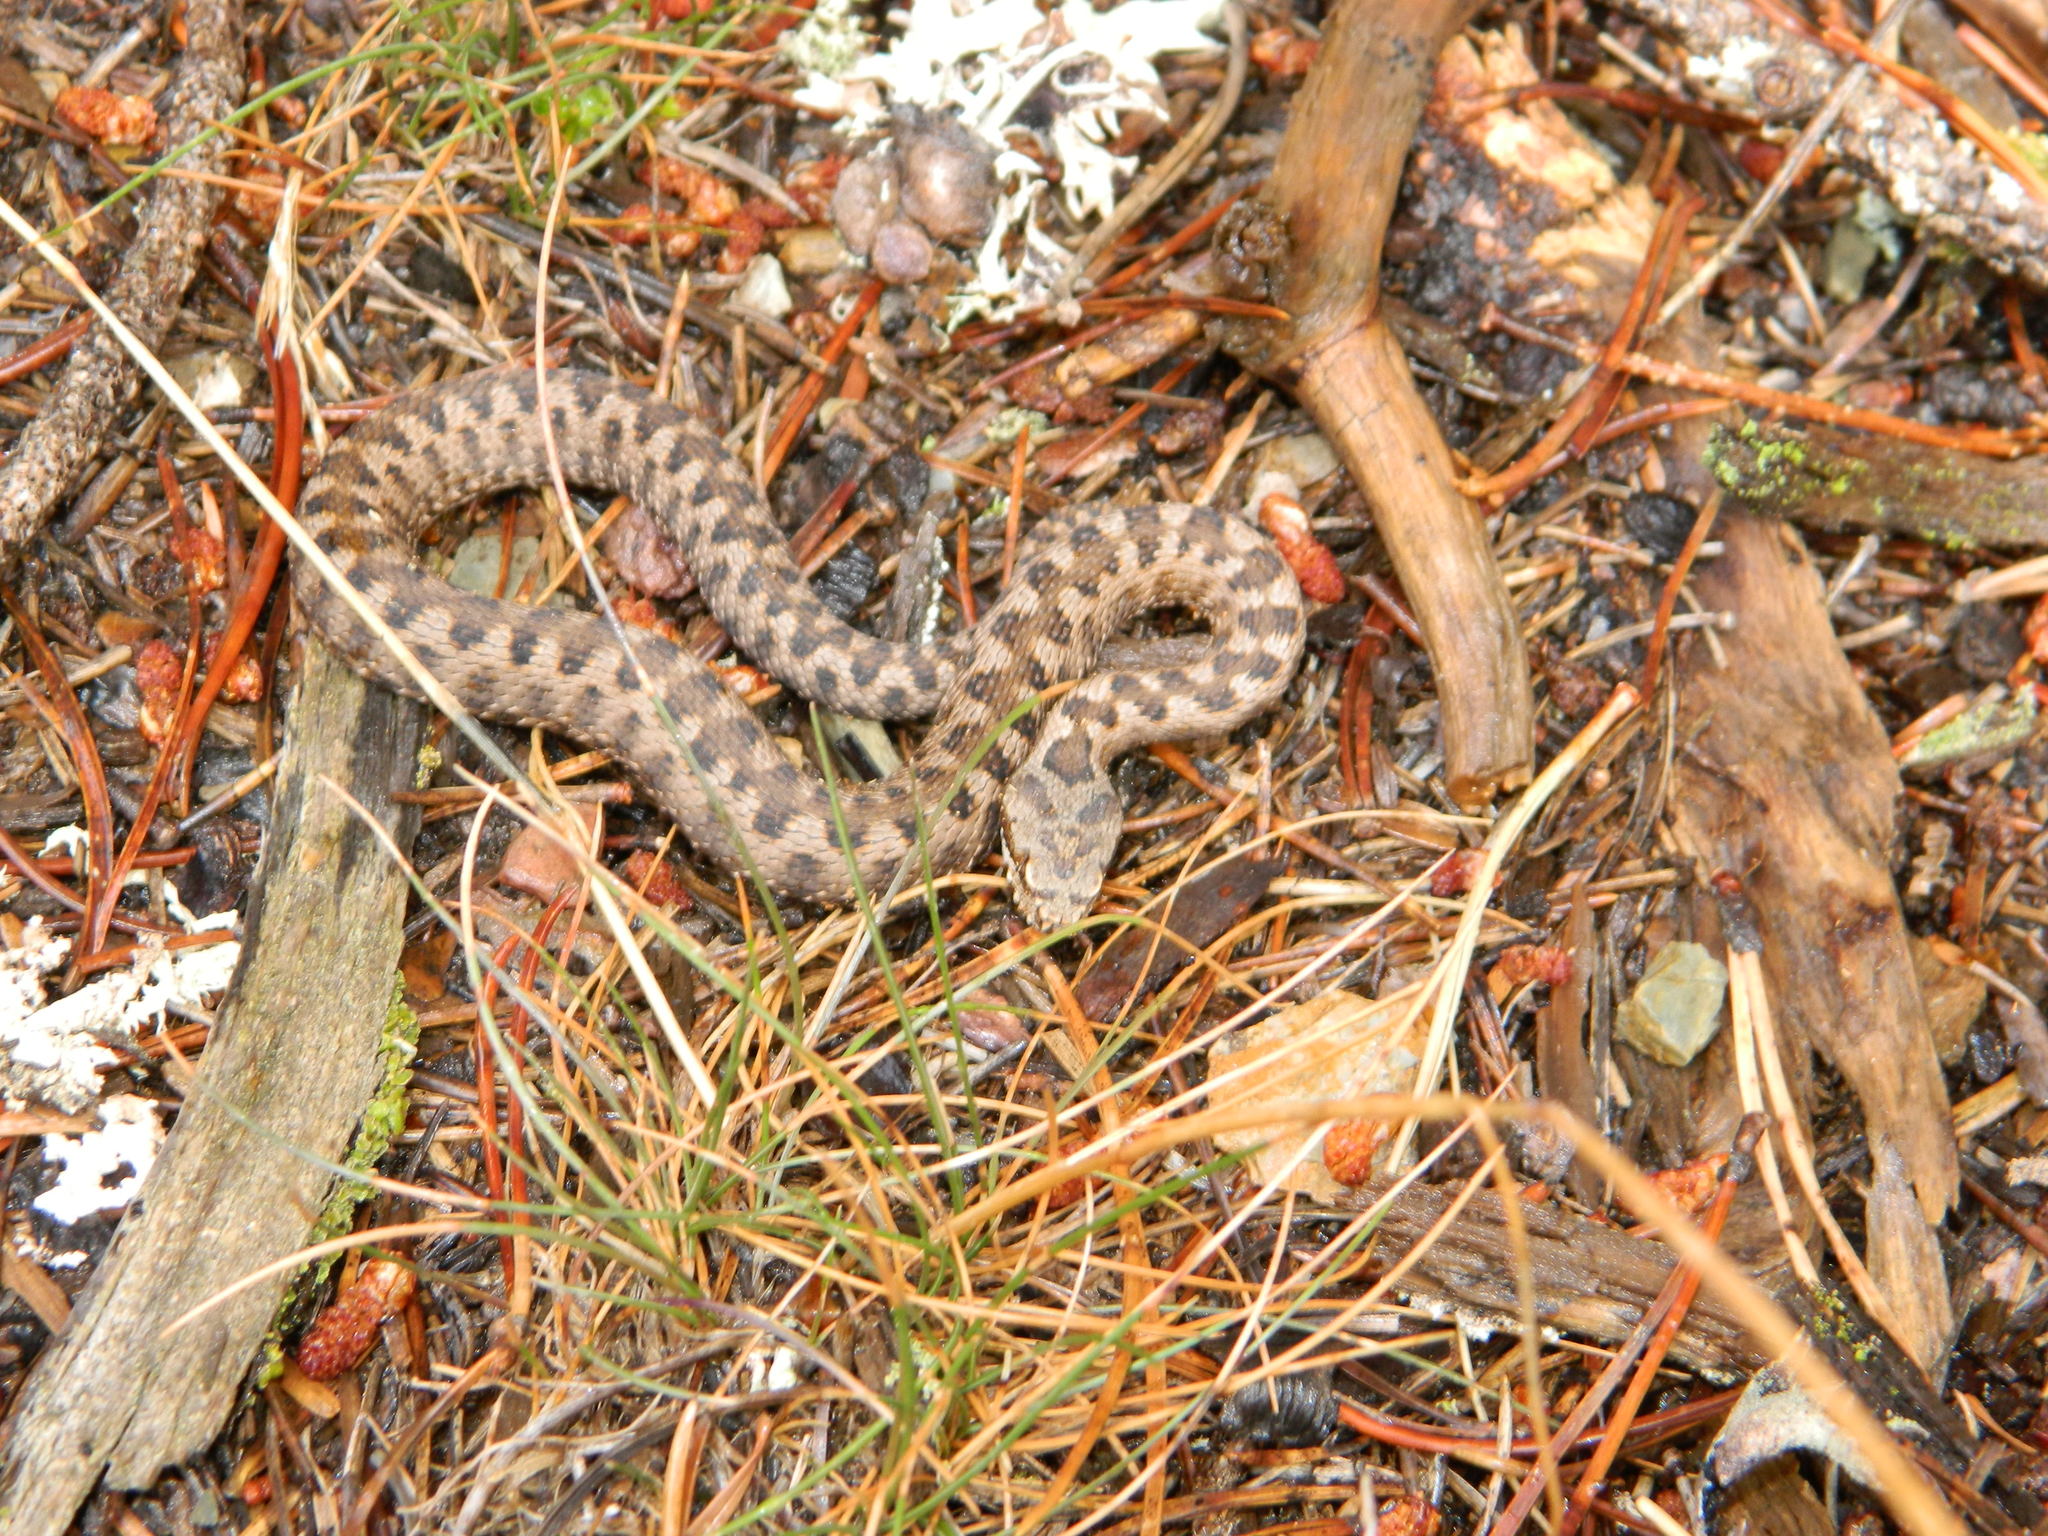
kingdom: Animalia
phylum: Chordata
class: Squamata
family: Viperidae
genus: Vipera
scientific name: Vipera aspis
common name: Asp viper
